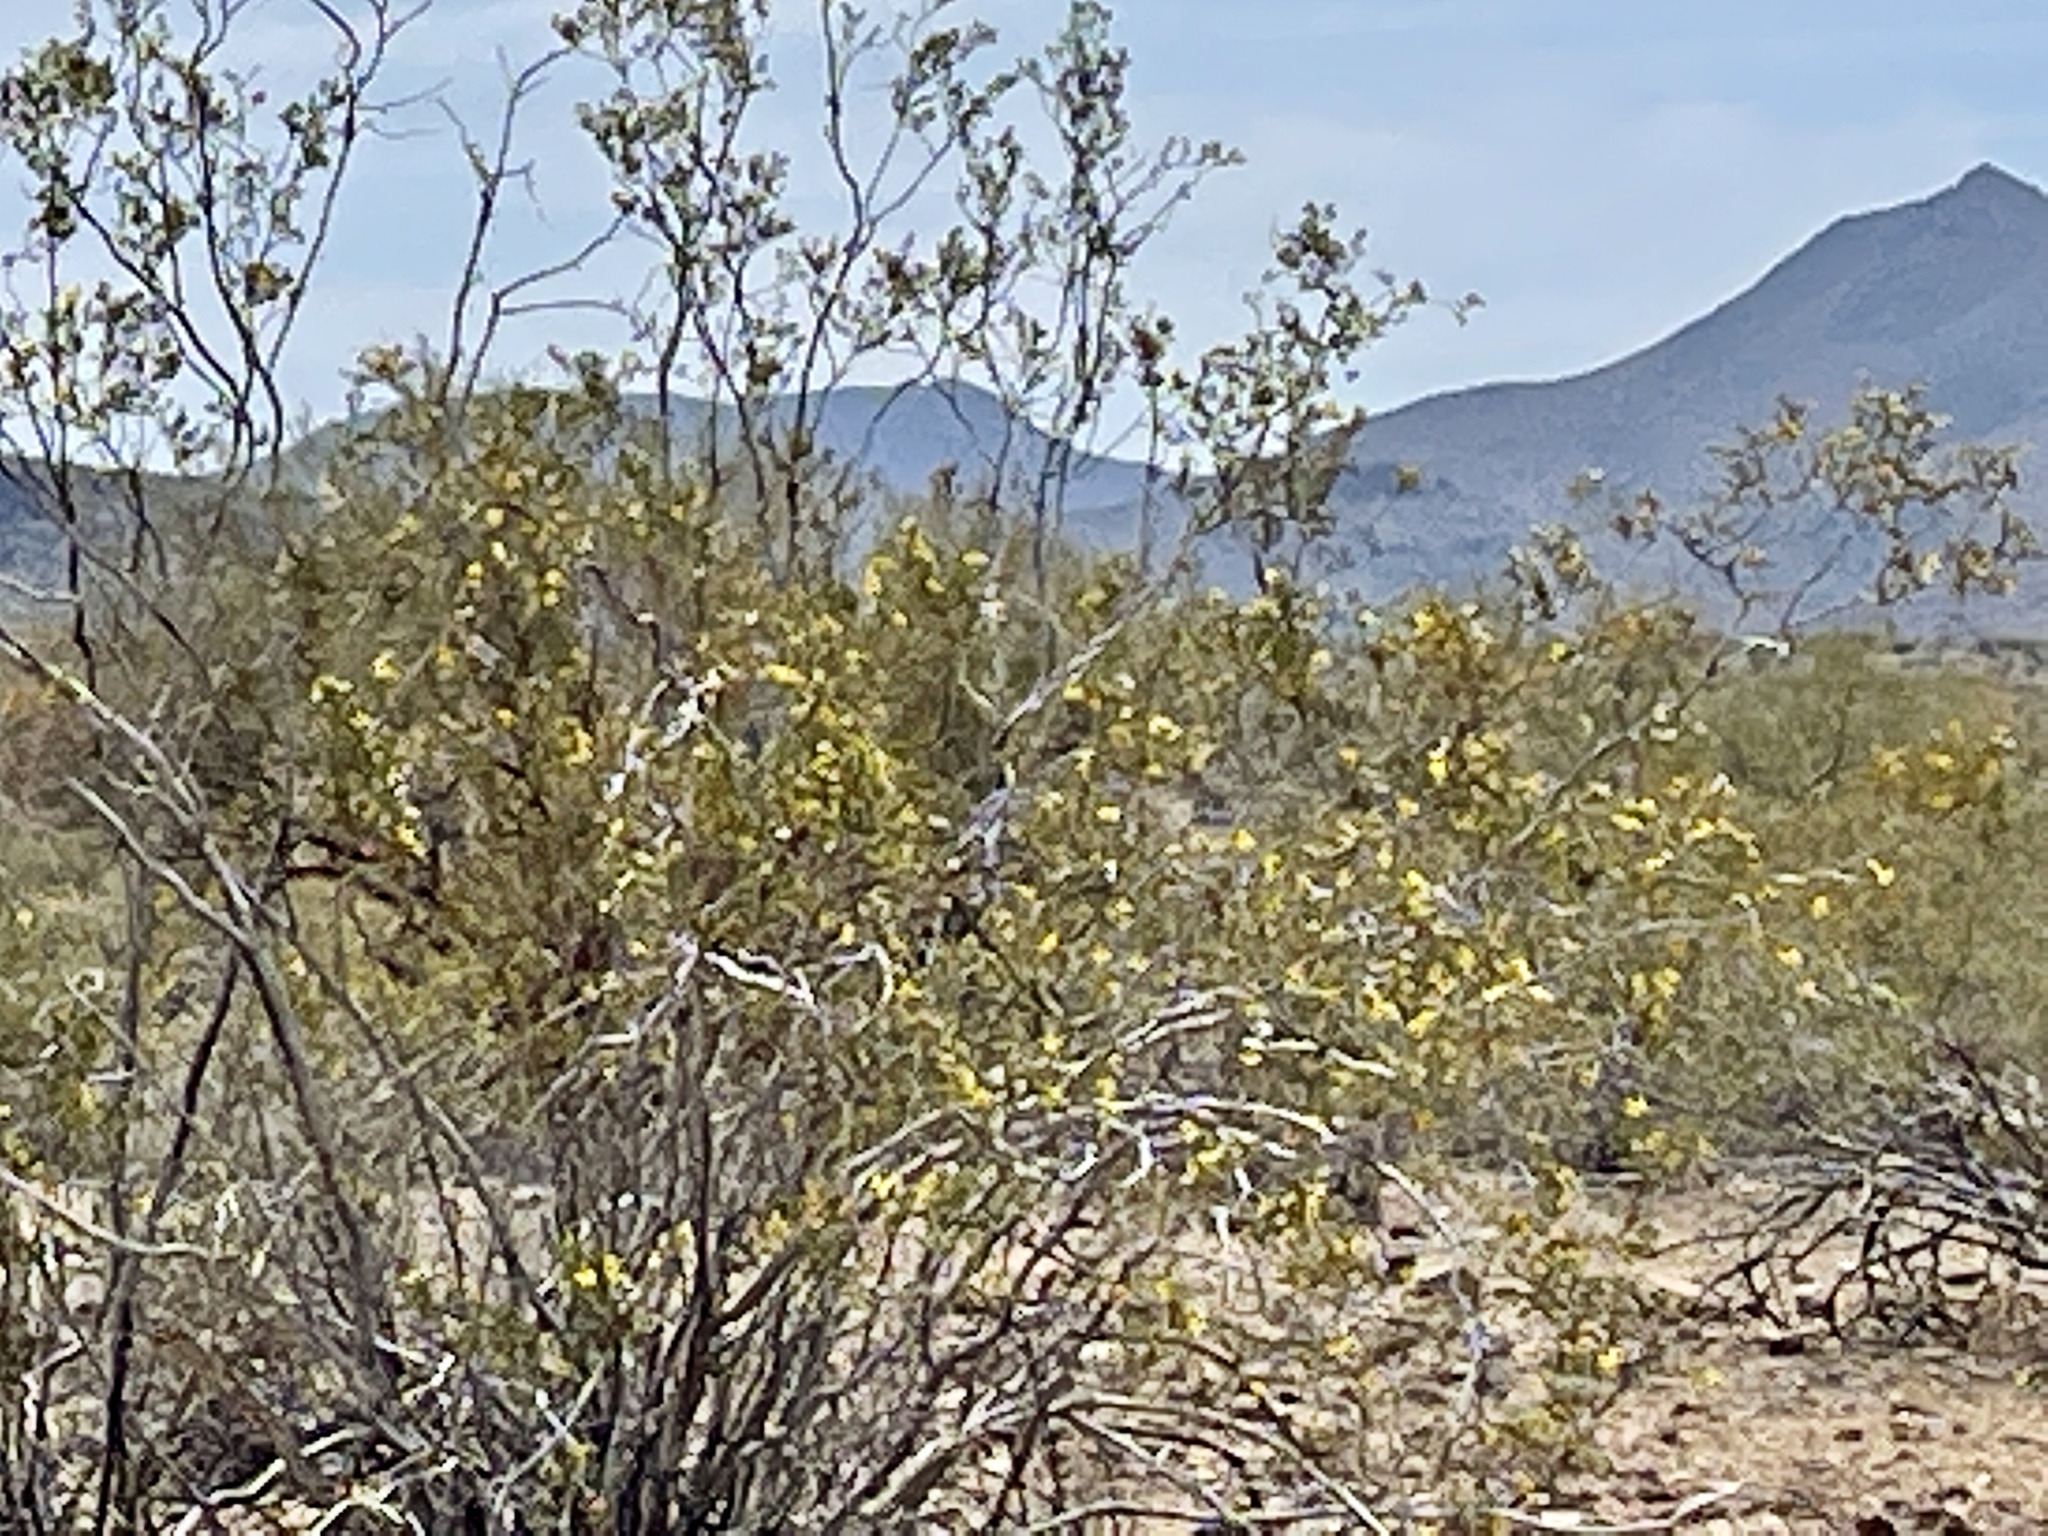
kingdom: Plantae
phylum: Tracheophyta
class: Magnoliopsida
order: Zygophyllales
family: Zygophyllaceae
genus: Larrea
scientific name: Larrea tridentata
